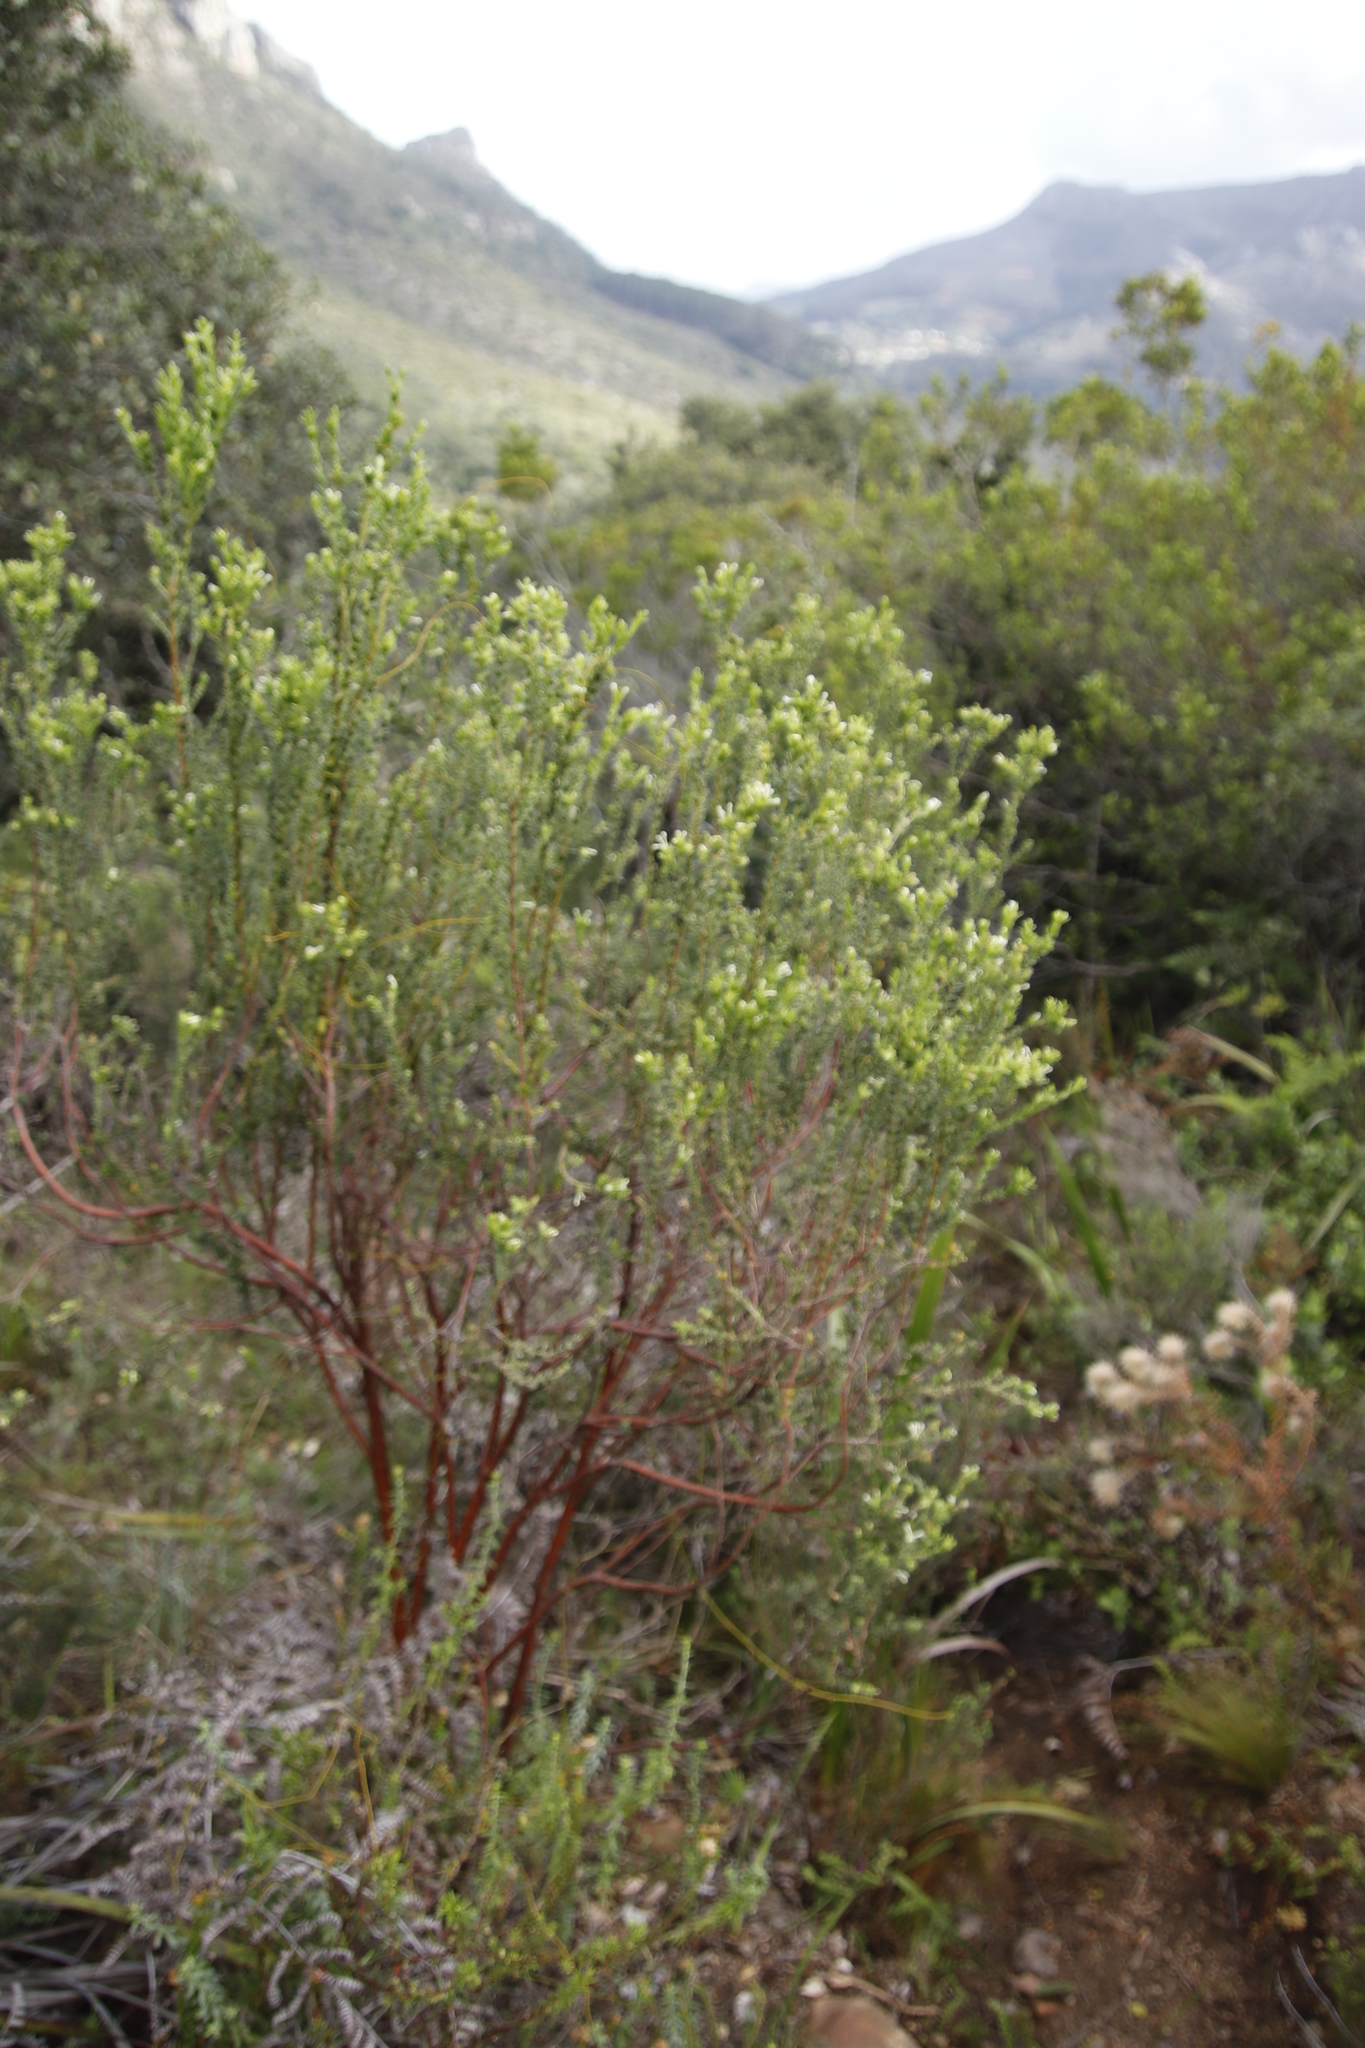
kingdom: Plantae
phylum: Tracheophyta
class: Magnoliopsida
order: Malvales
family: Thymelaeaceae
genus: Gnidia
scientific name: Gnidia sericea
